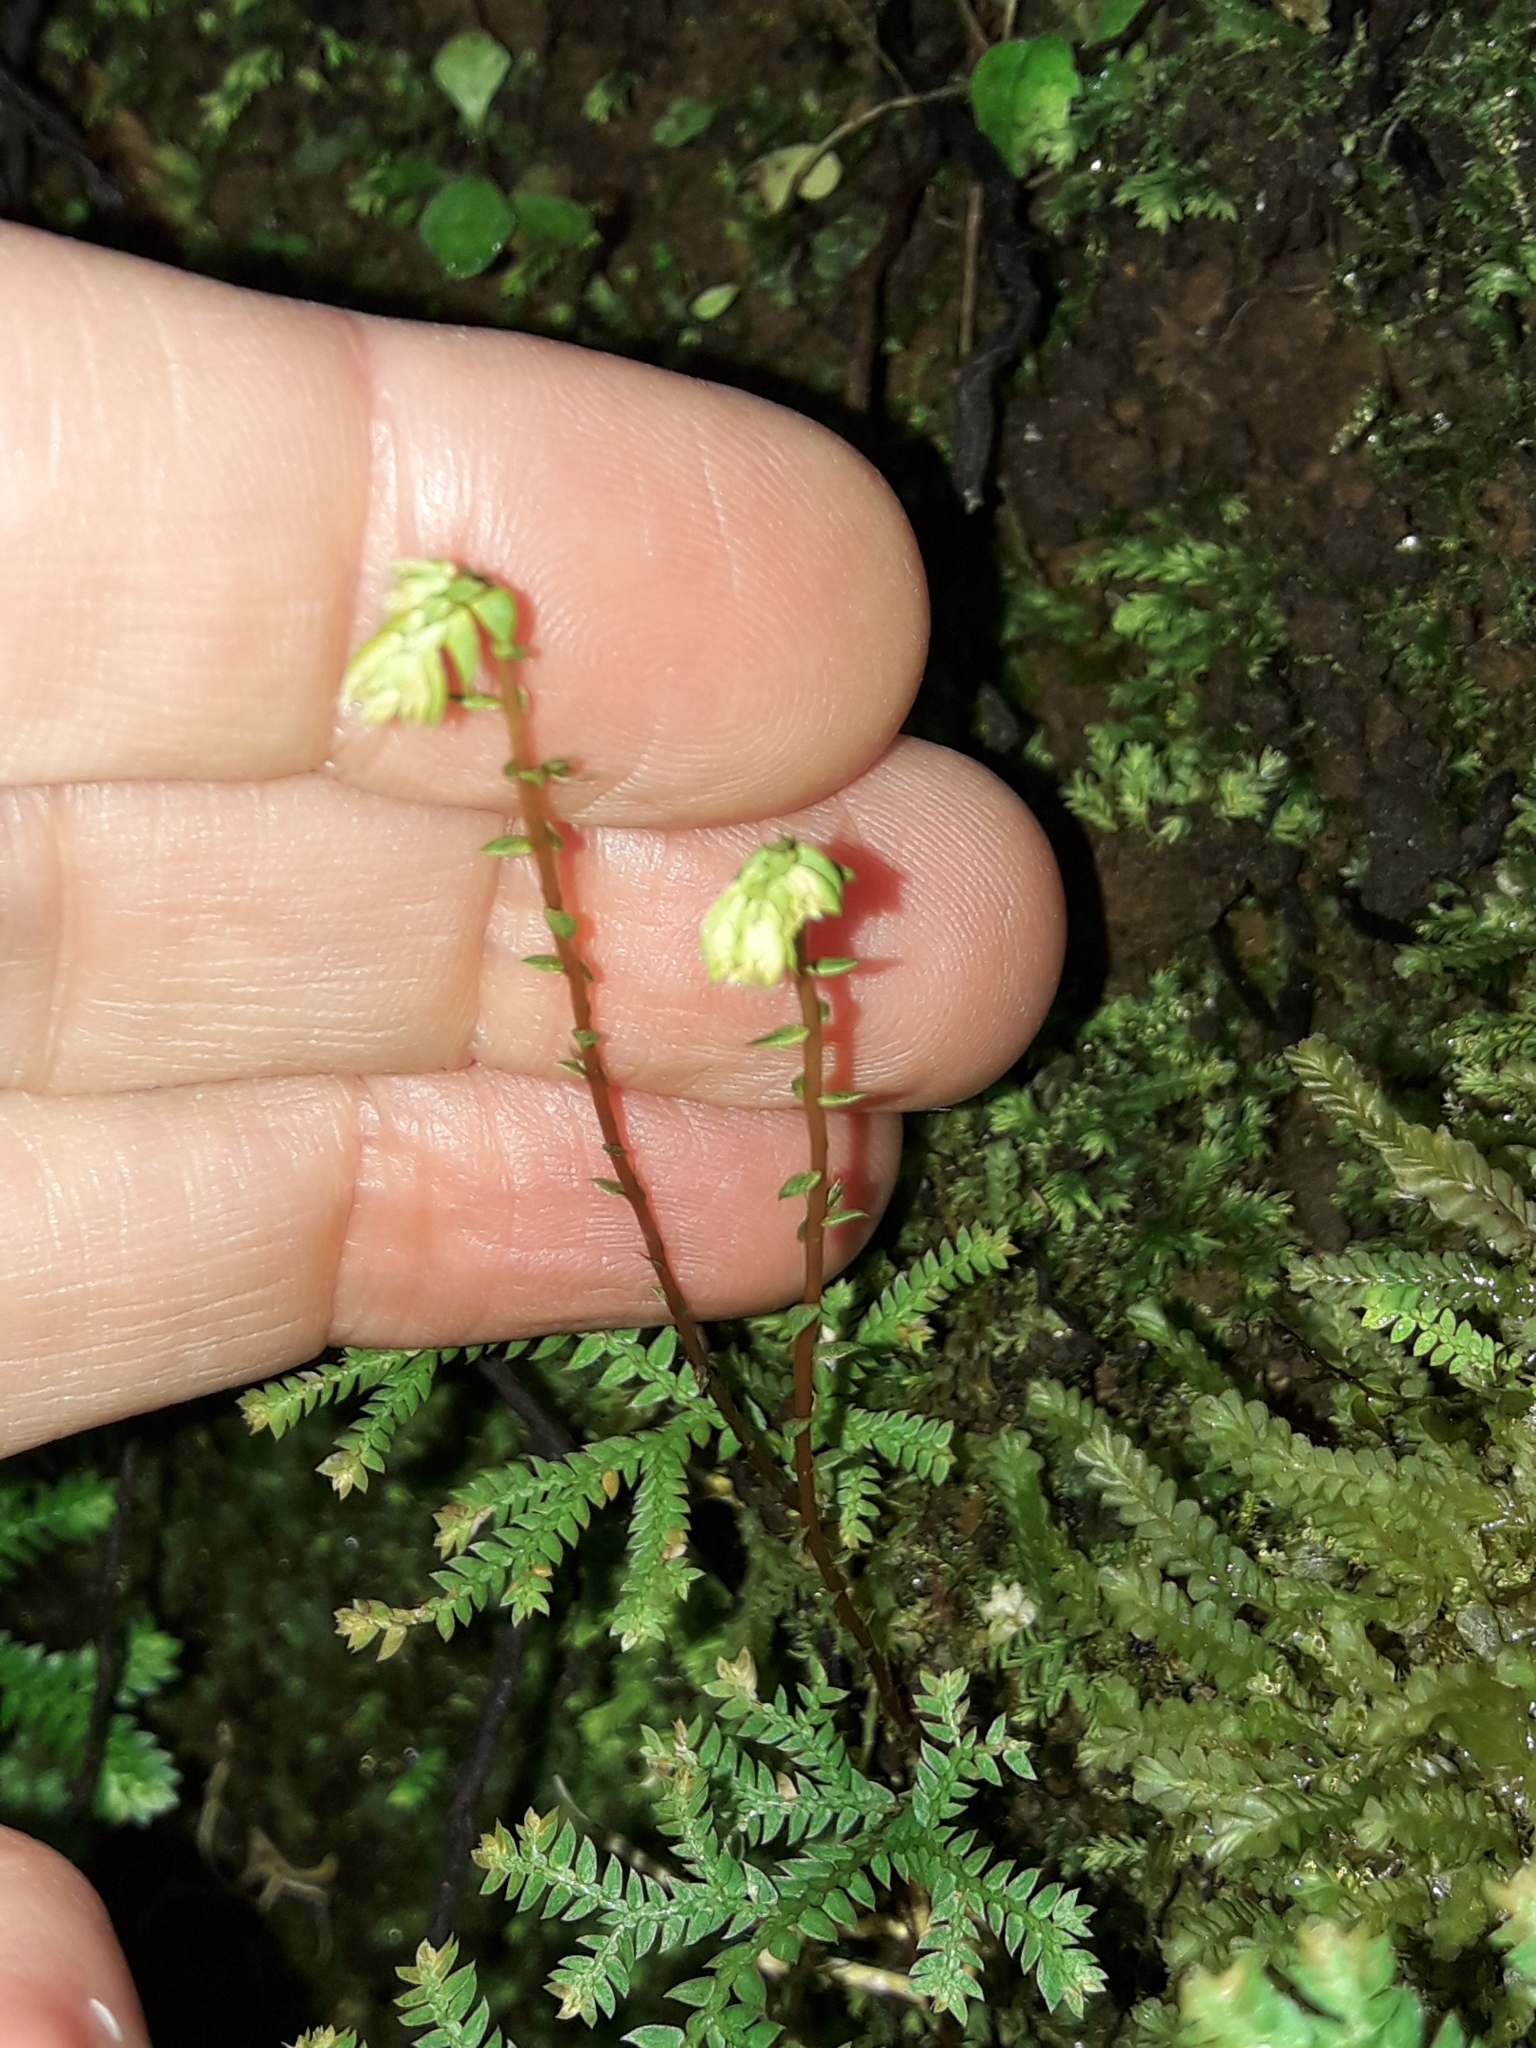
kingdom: Plantae
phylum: Tracheophyta
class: Lycopodiopsida
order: Selaginellales
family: Selaginellaceae
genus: Selaginella
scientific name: Selaginella kraussiana
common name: Krauss' spikemoss
